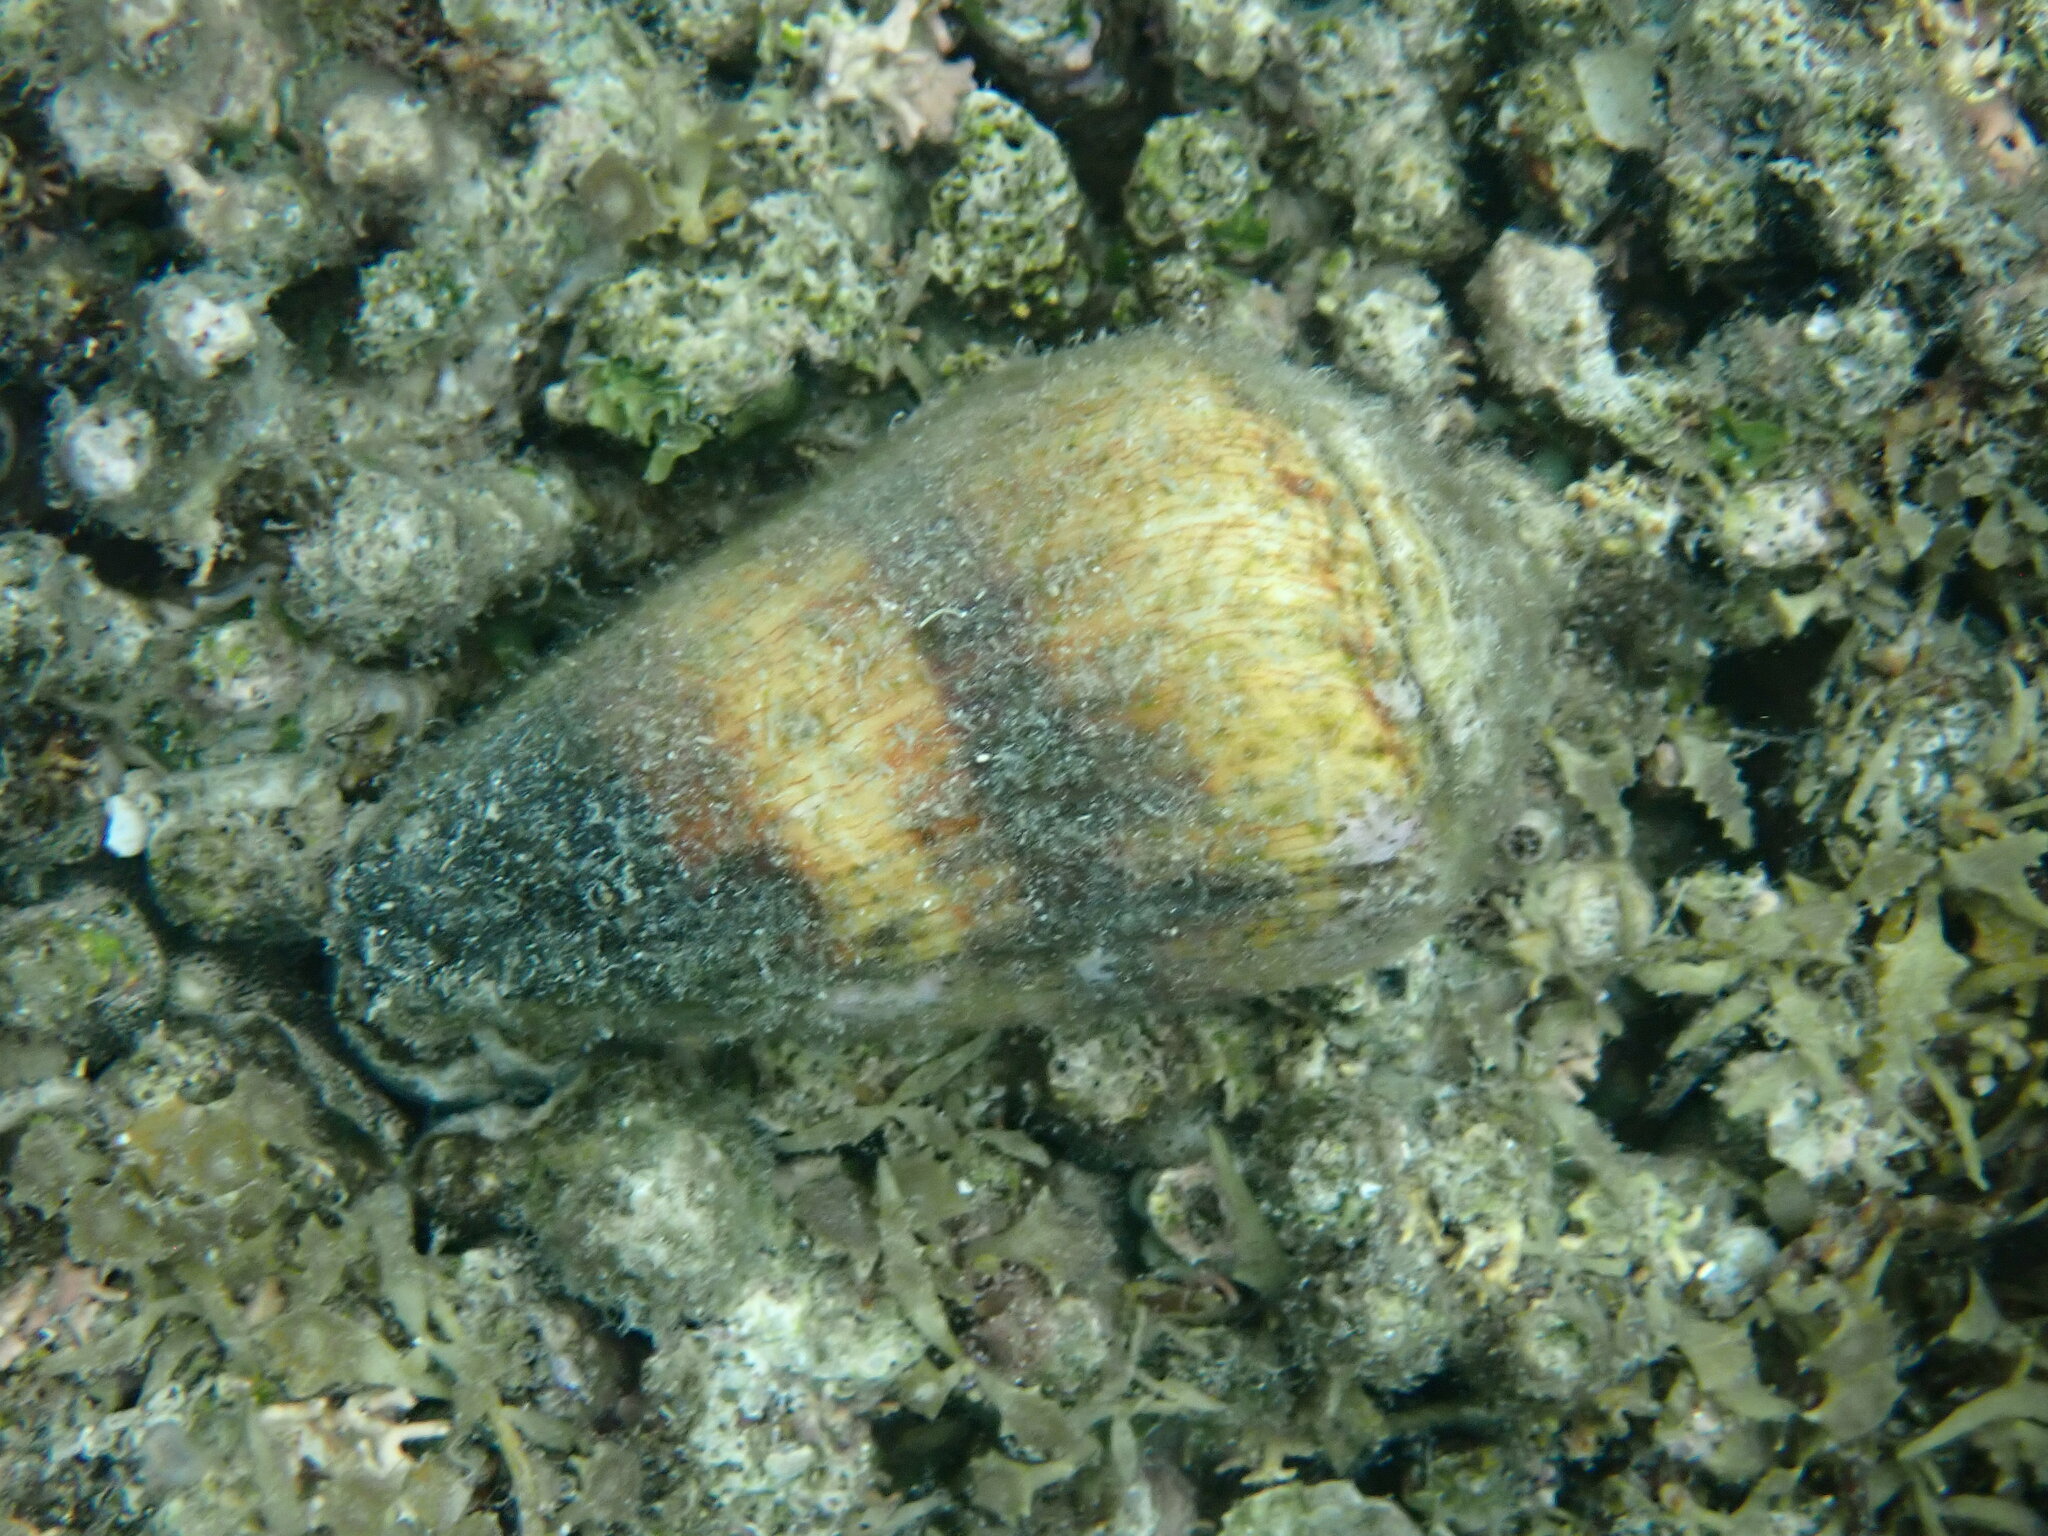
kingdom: Animalia
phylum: Mollusca
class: Gastropoda
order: Neogastropoda
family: Conidae
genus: Conus
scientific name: Conus miles
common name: Soldier cone
